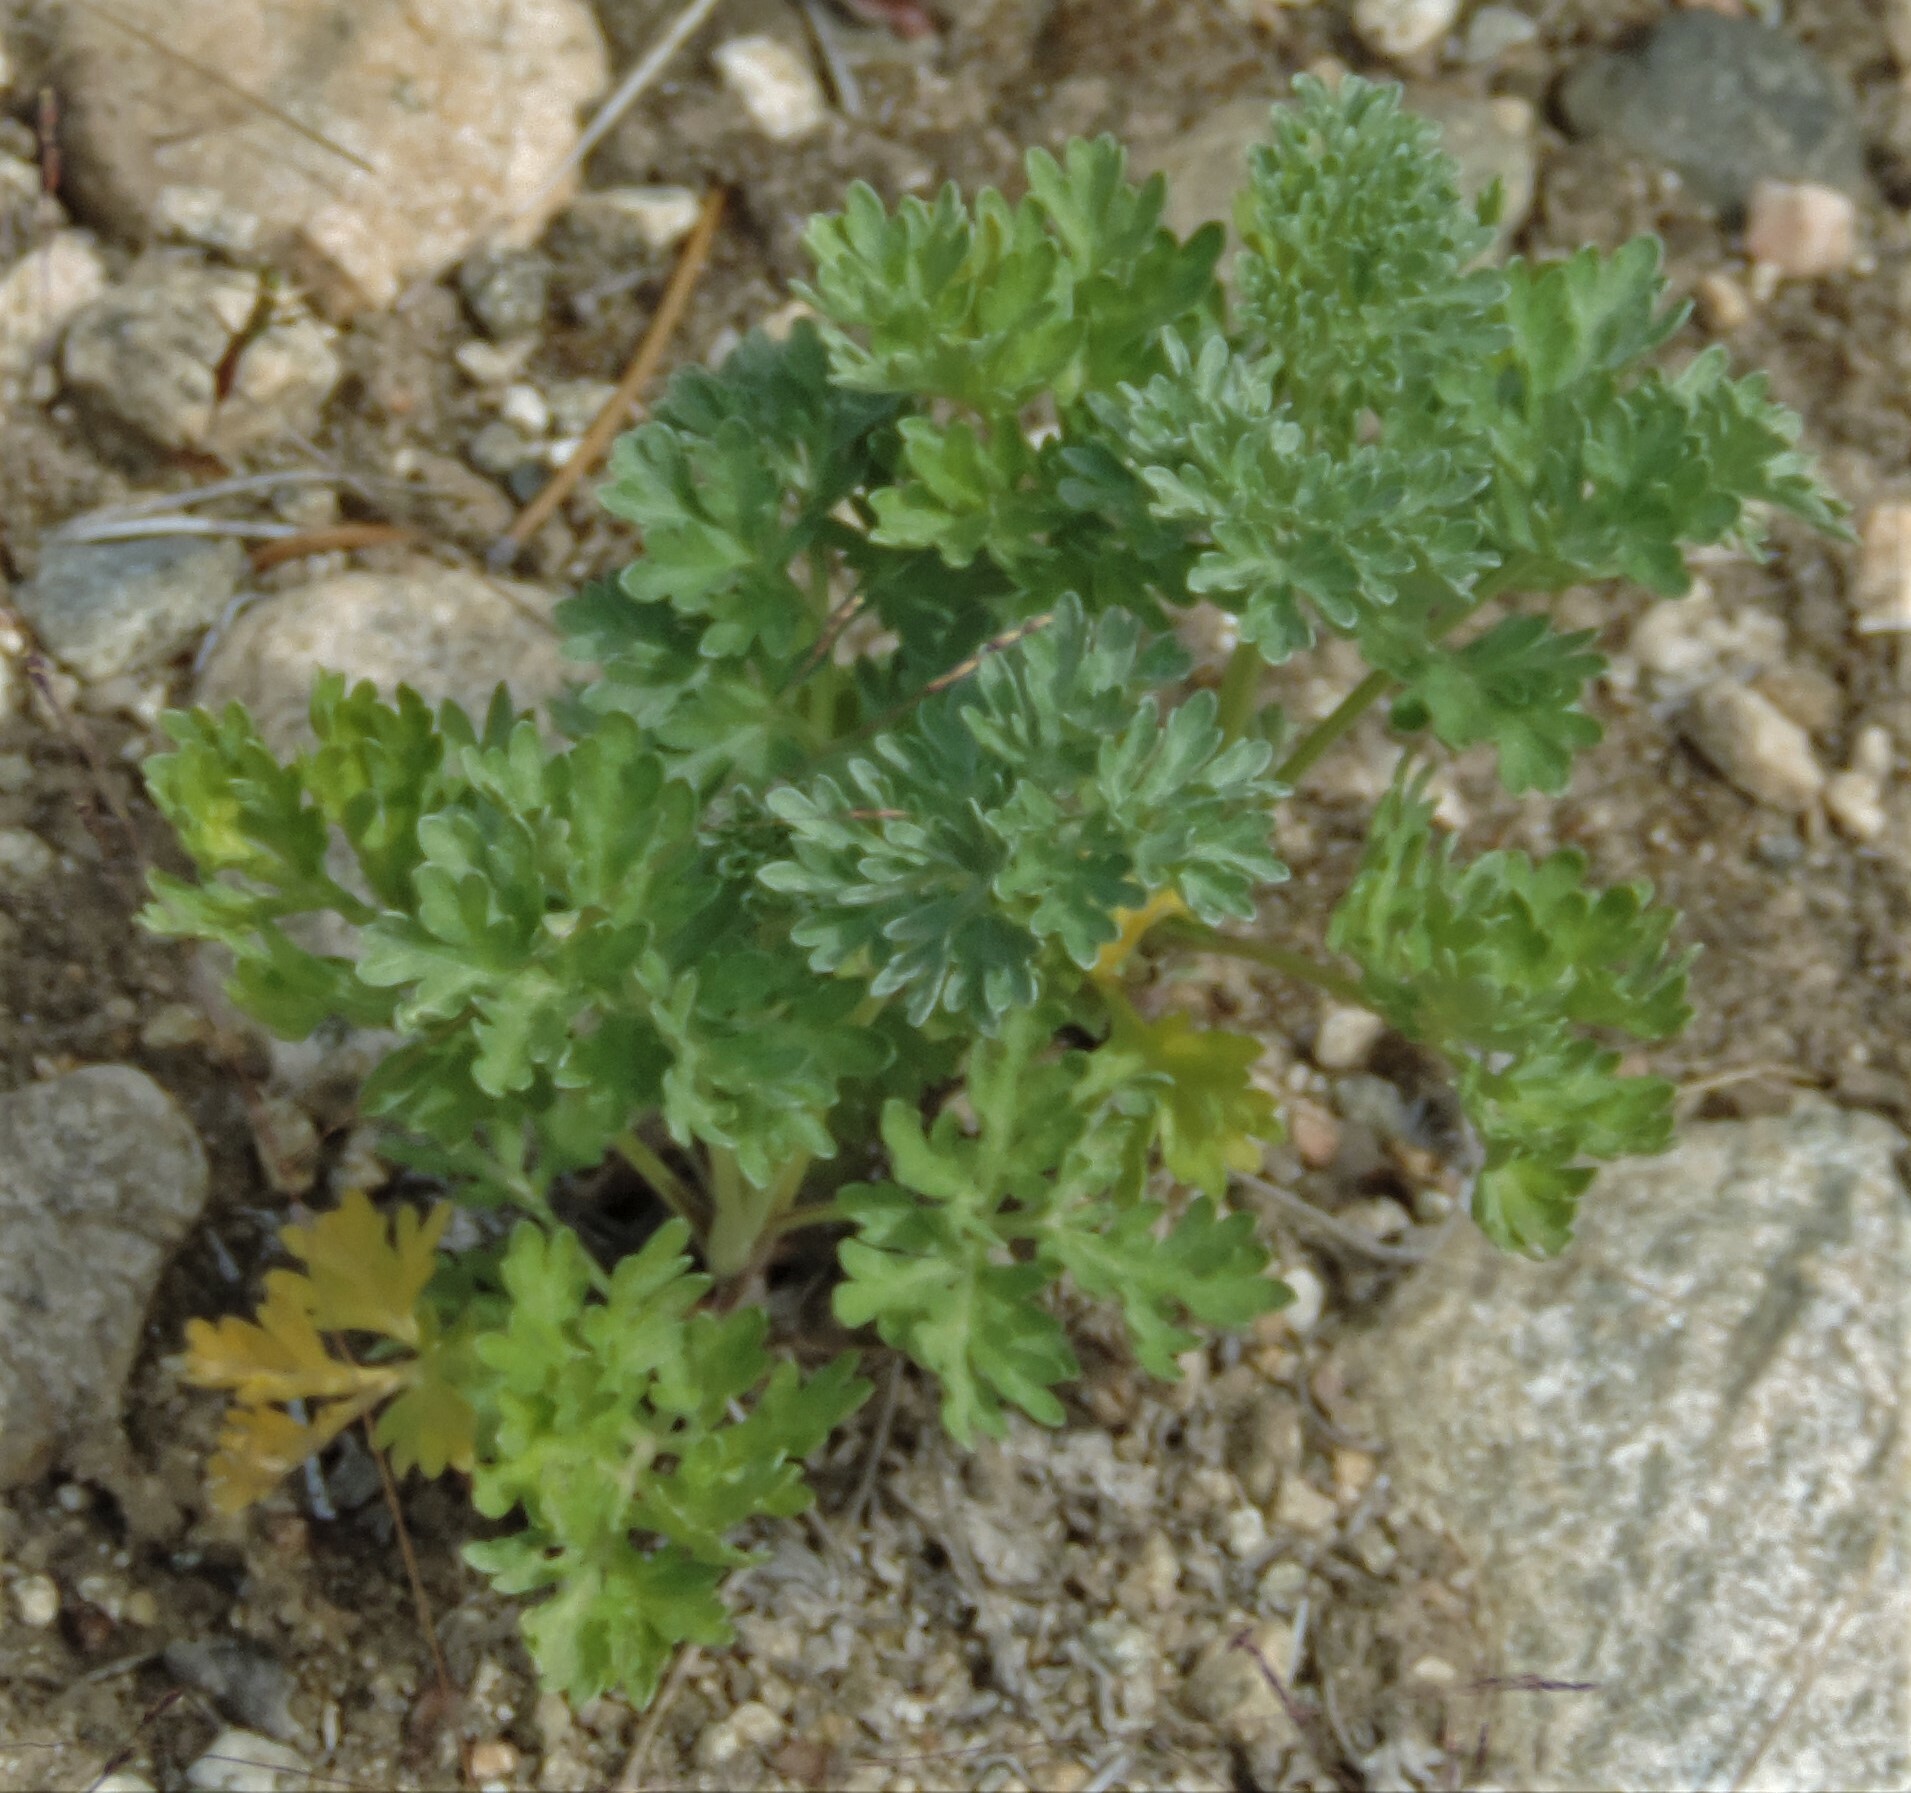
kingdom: Plantae
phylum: Tracheophyta
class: Magnoliopsida
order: Asterales
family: Asteraceae
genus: Artemisia
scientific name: Artemisia absinthium
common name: Wormwood
